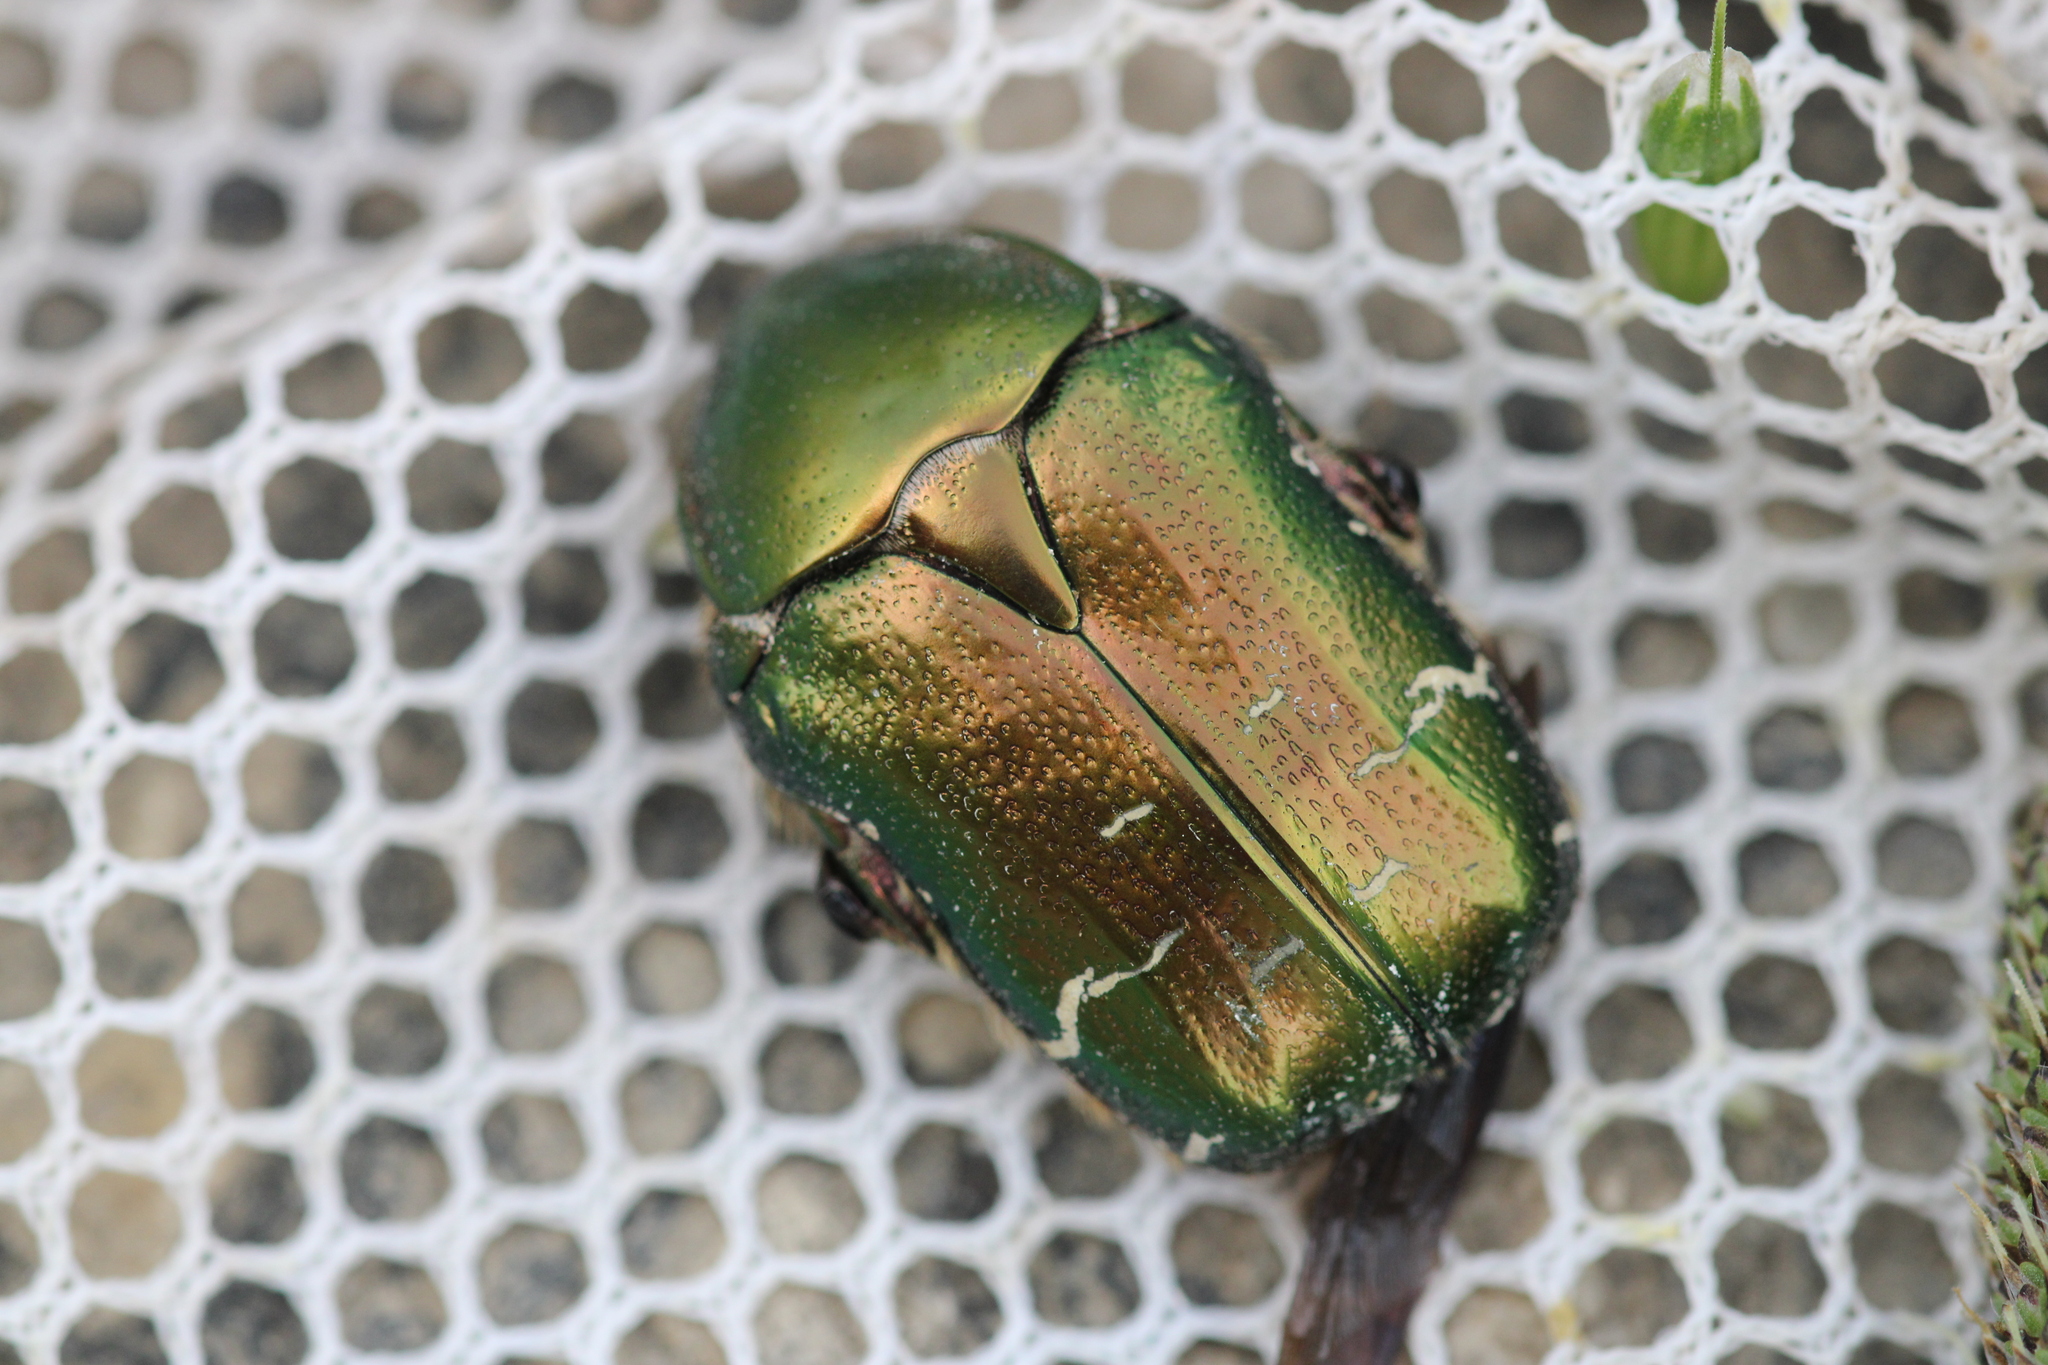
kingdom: Animalia
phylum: Arthropoda
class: Insecta
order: Coleoptera
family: Scarabaeidae
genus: Cetonia
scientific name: Cetonia aurata
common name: Rose chafer
